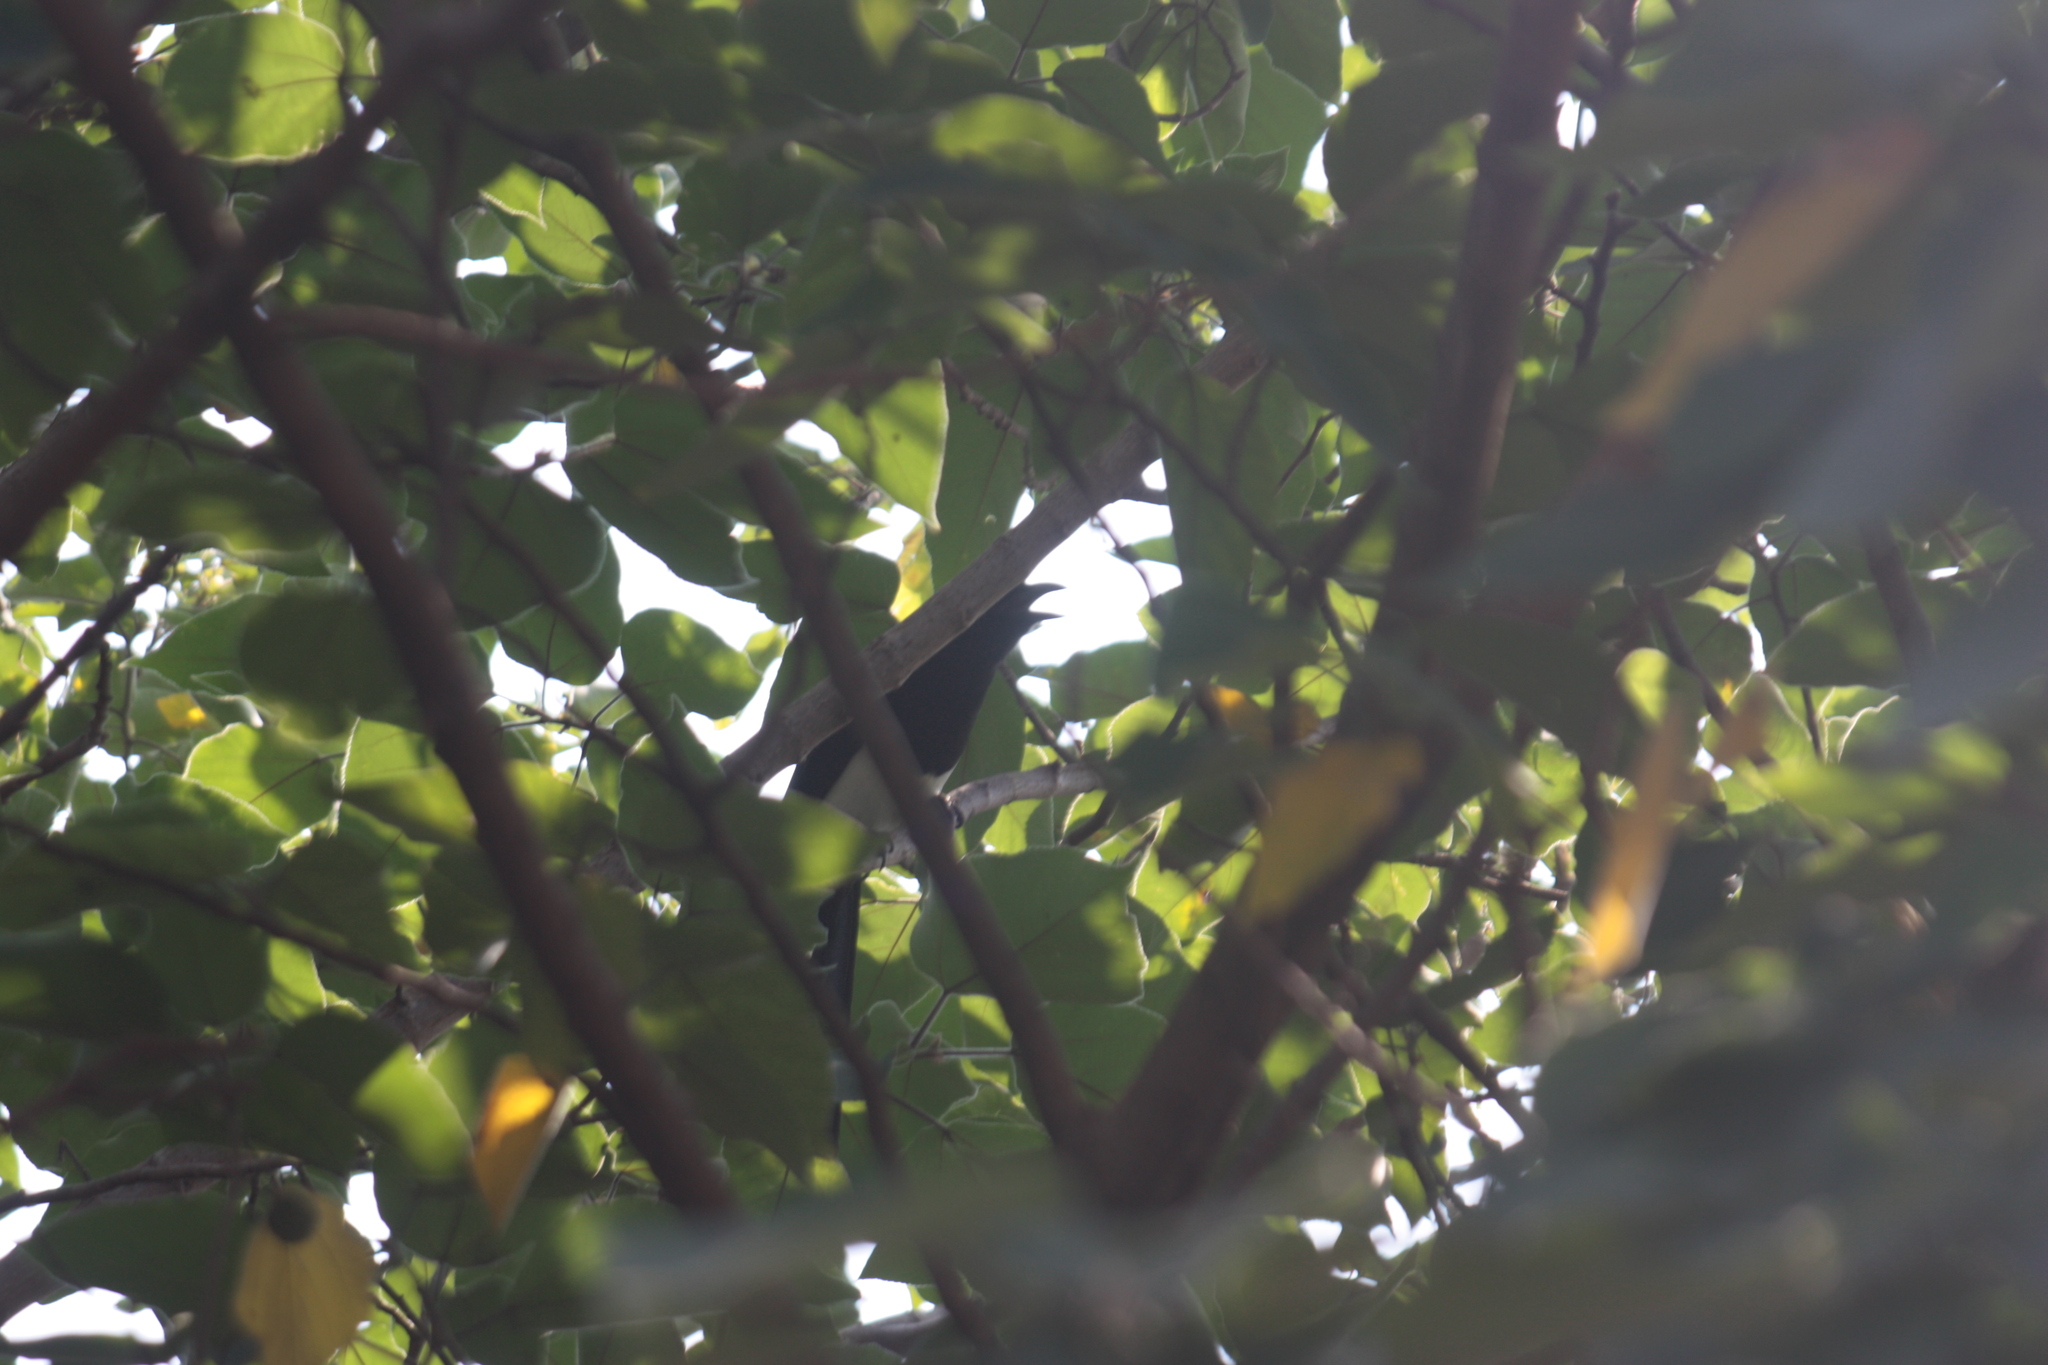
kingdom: Animalia
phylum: Chordata
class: Aves
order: Passeriformes
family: Corvidae
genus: Pica
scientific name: Pica serica
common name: Oriental magpie
